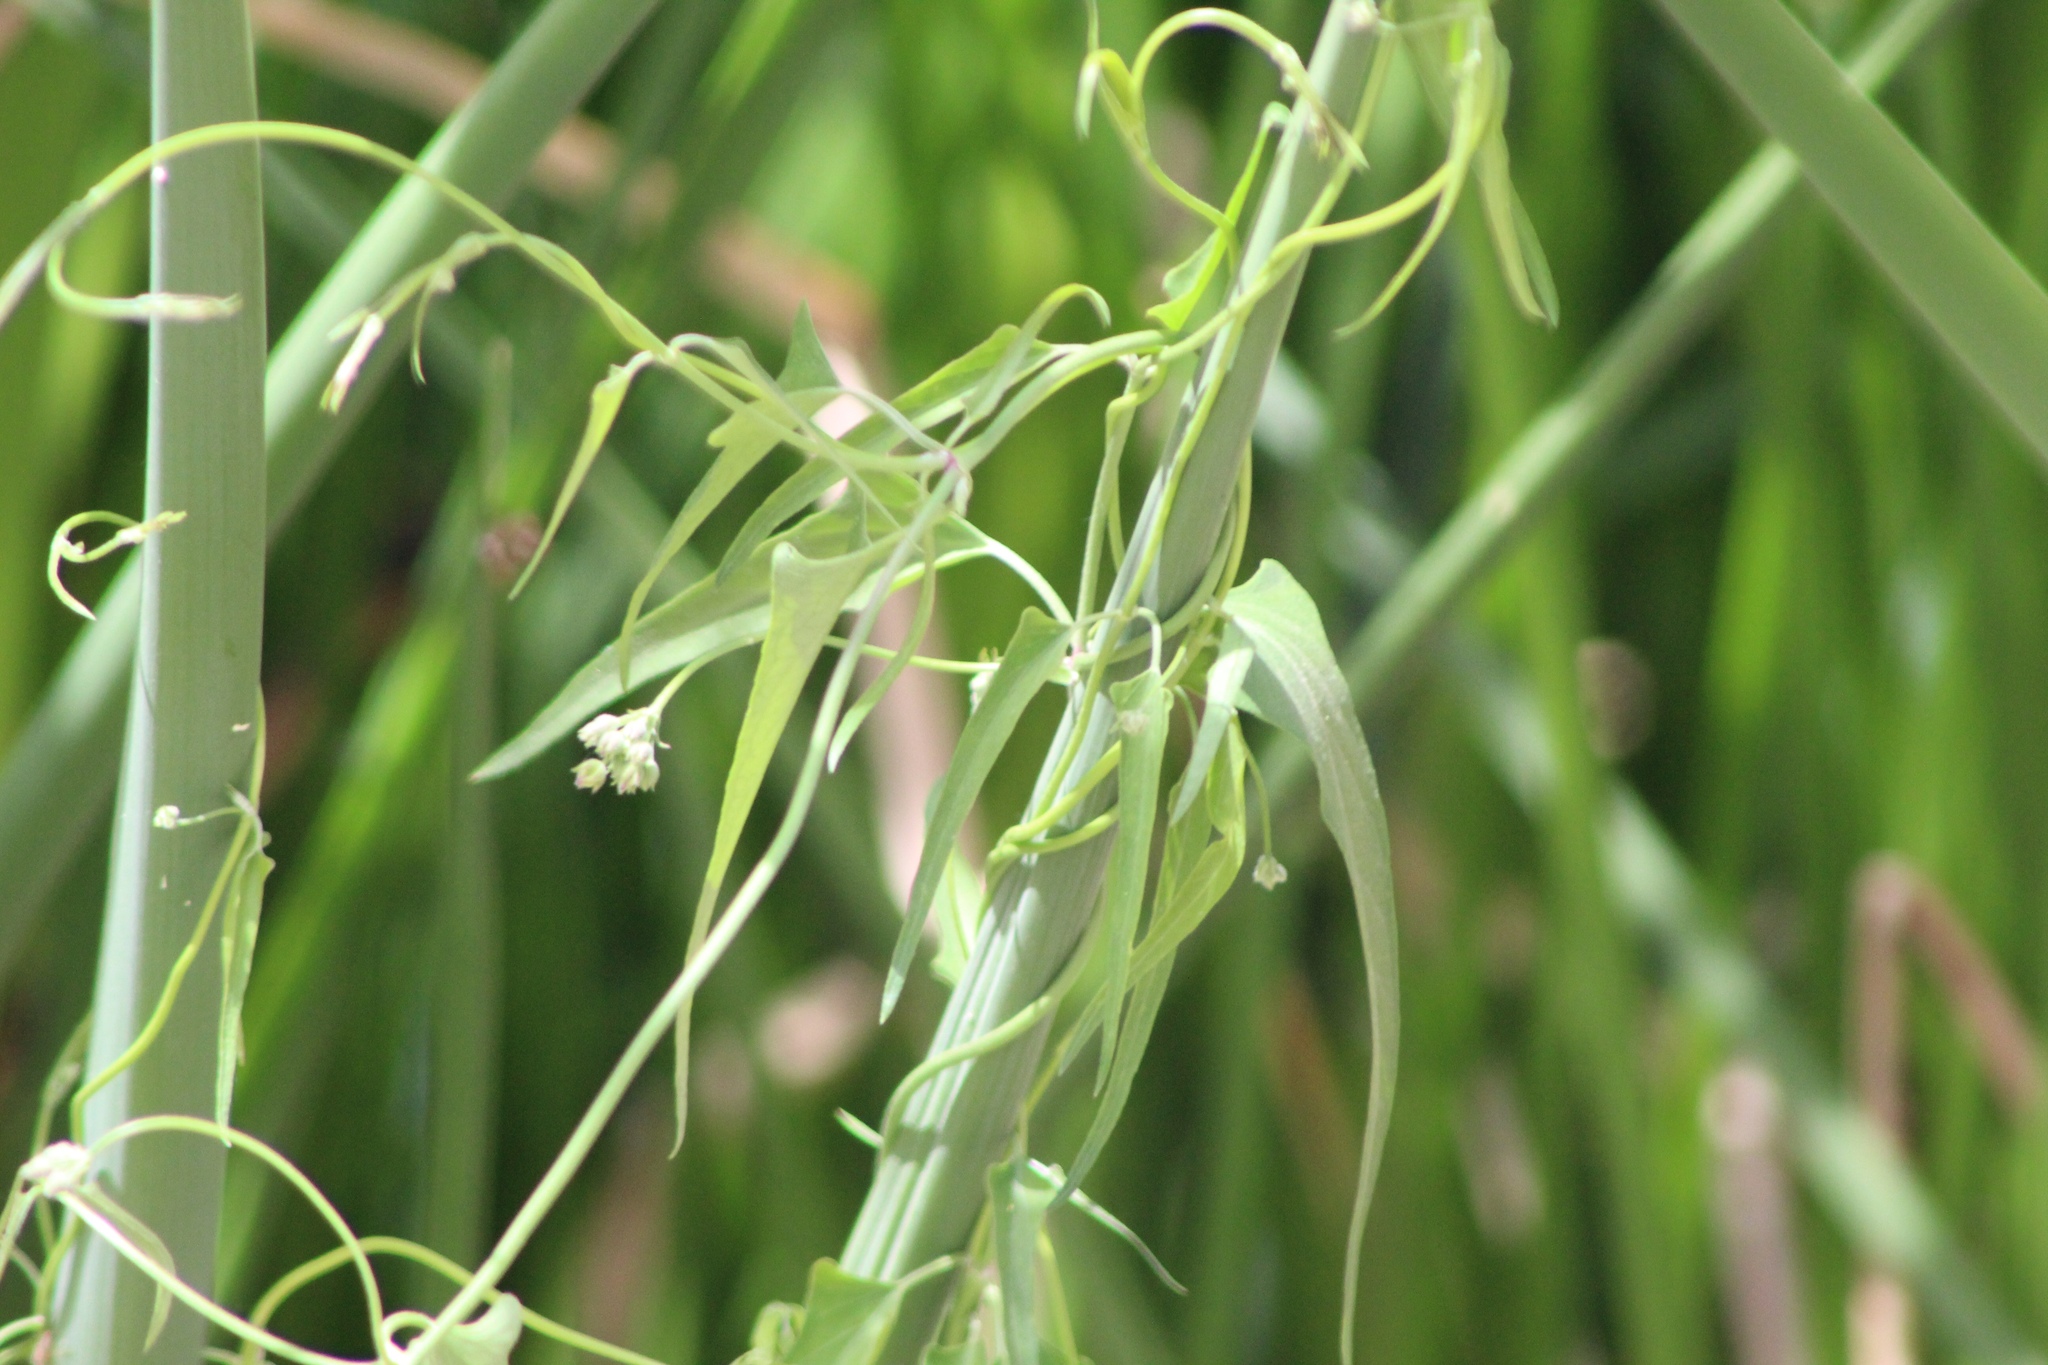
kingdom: Plantae
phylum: Tracheophyta
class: Magnoliopsida
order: Gentianales
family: Apocynaceae
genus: Funastrum
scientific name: Funastrum heterophyllum
